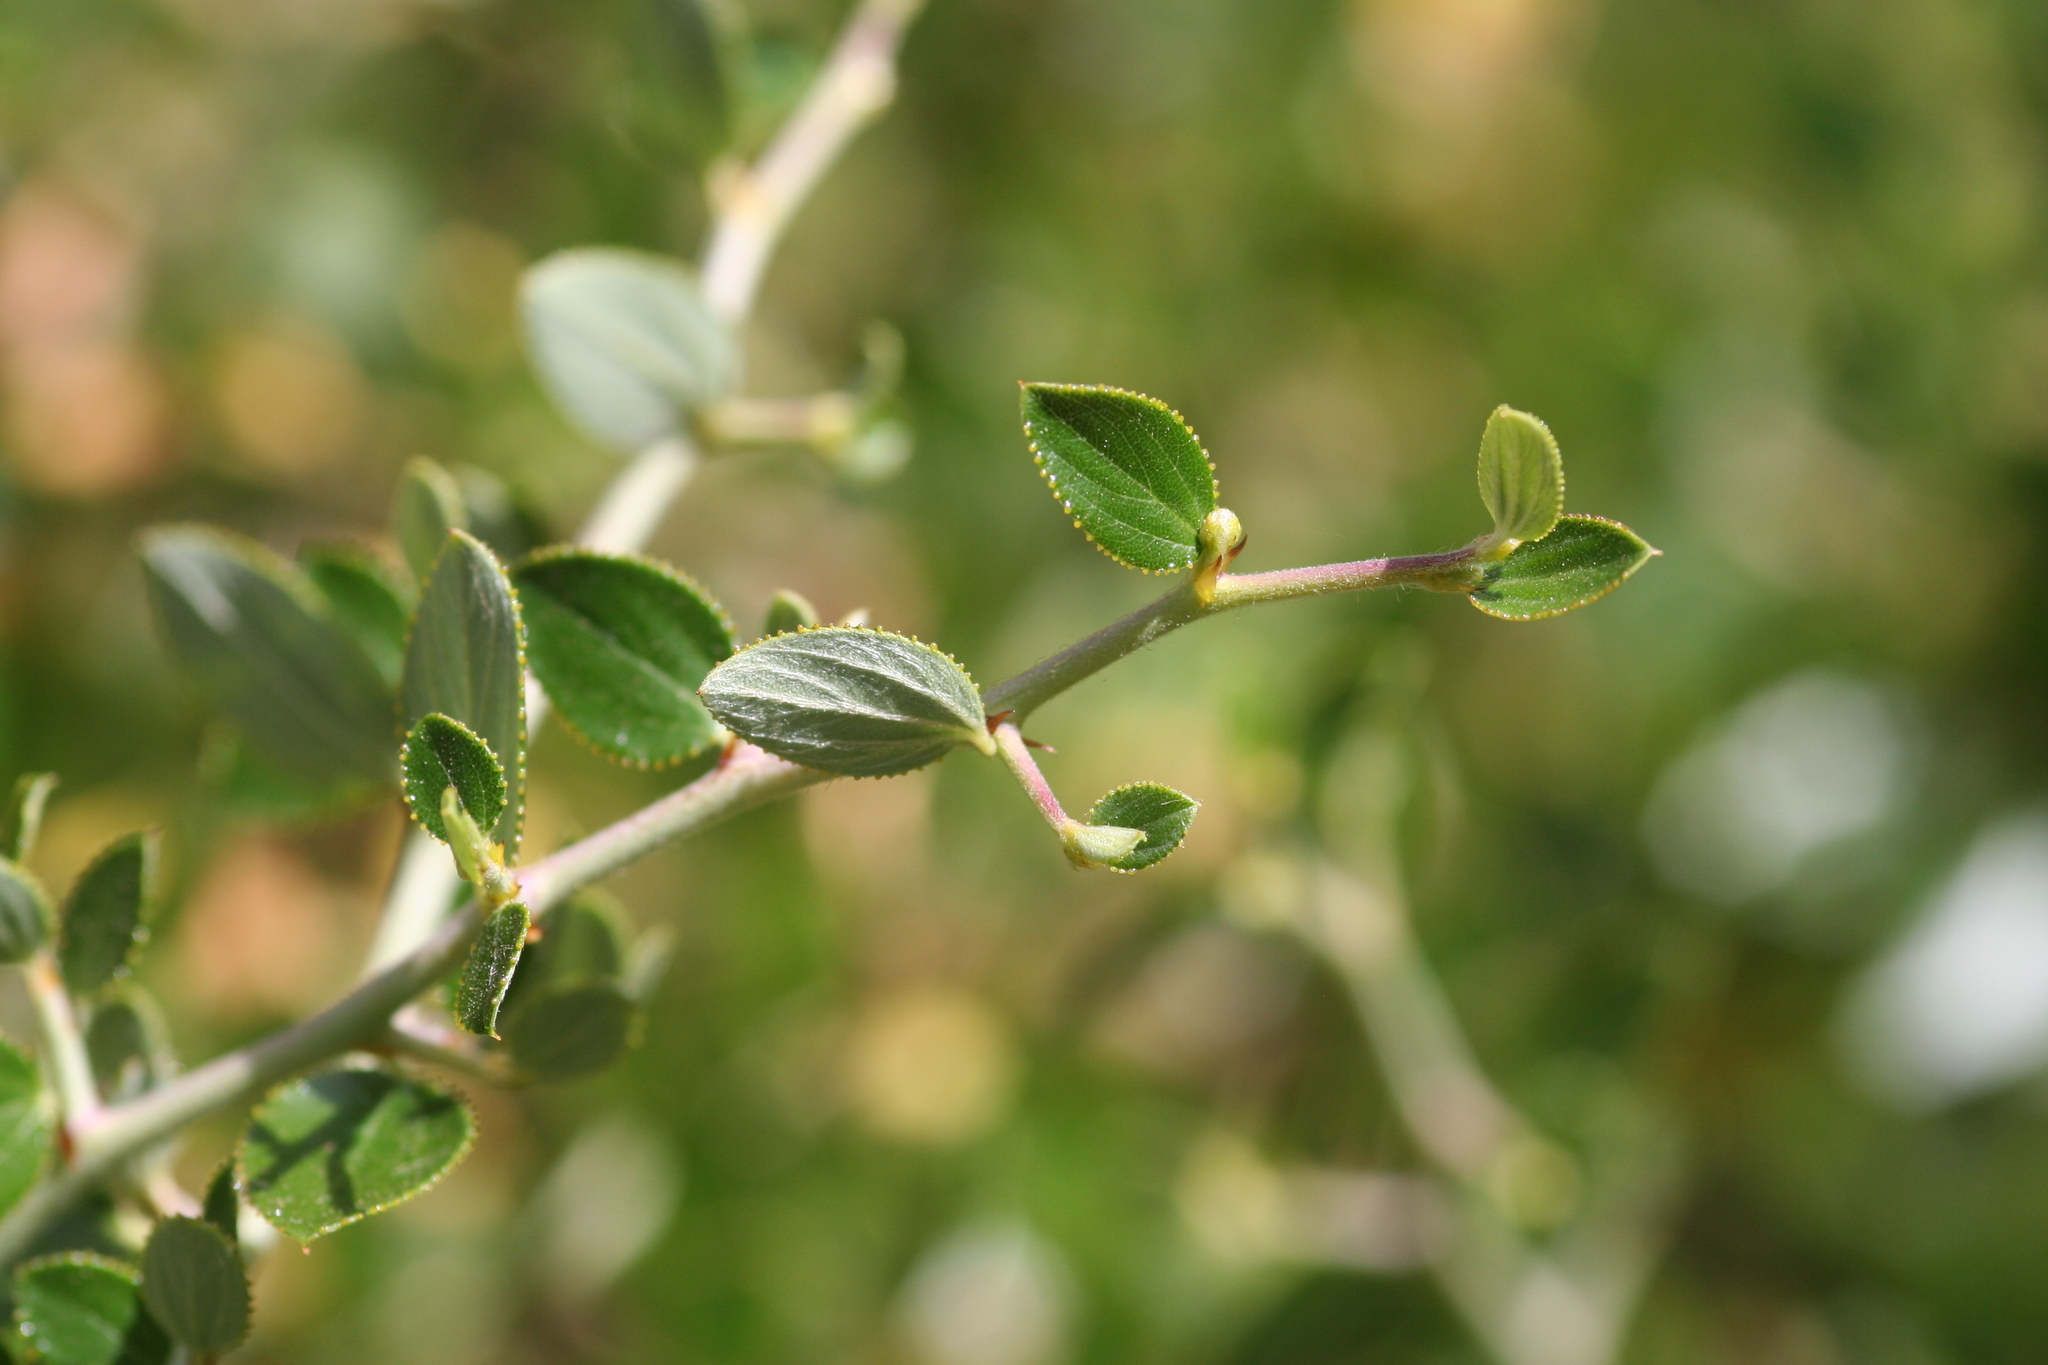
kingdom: Plantae
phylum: Tracheophyta
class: Magnoliopsida
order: Rosales
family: Rhamnaceae
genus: Ceanothus
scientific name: Ceanothus sorediatus
